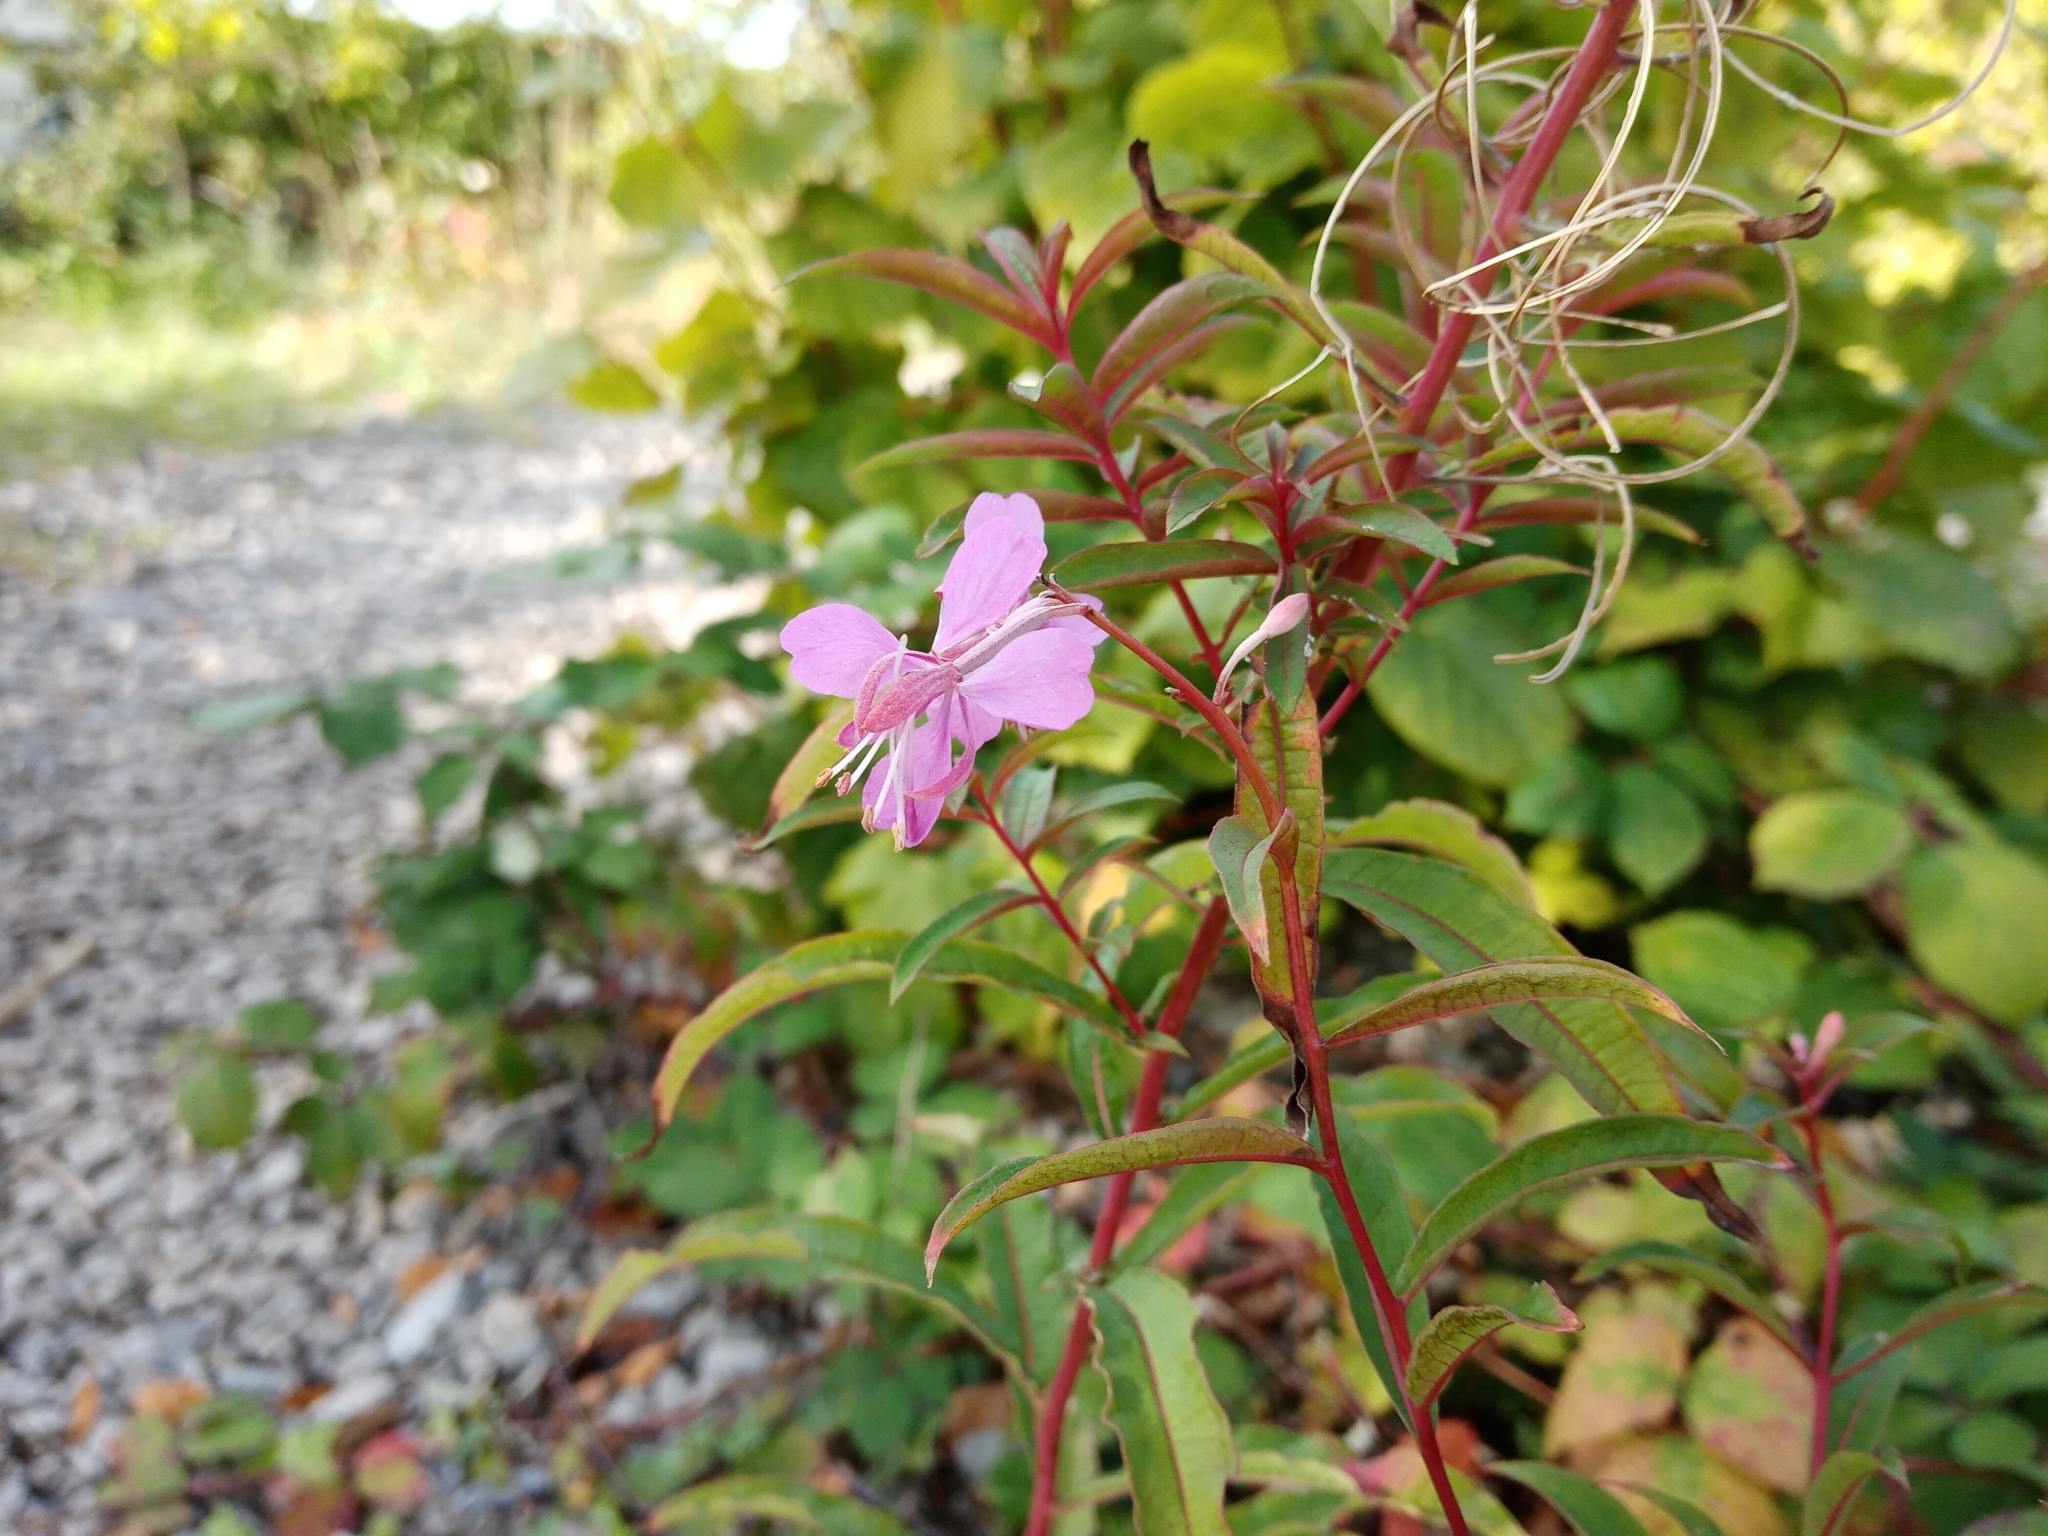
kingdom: Plantae
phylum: Tracheophyta
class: Magnoliopsida
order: Myrtales
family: Onagraceae
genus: Chamaenerion
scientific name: Chamaenerion angustifolium
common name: Fireweed
